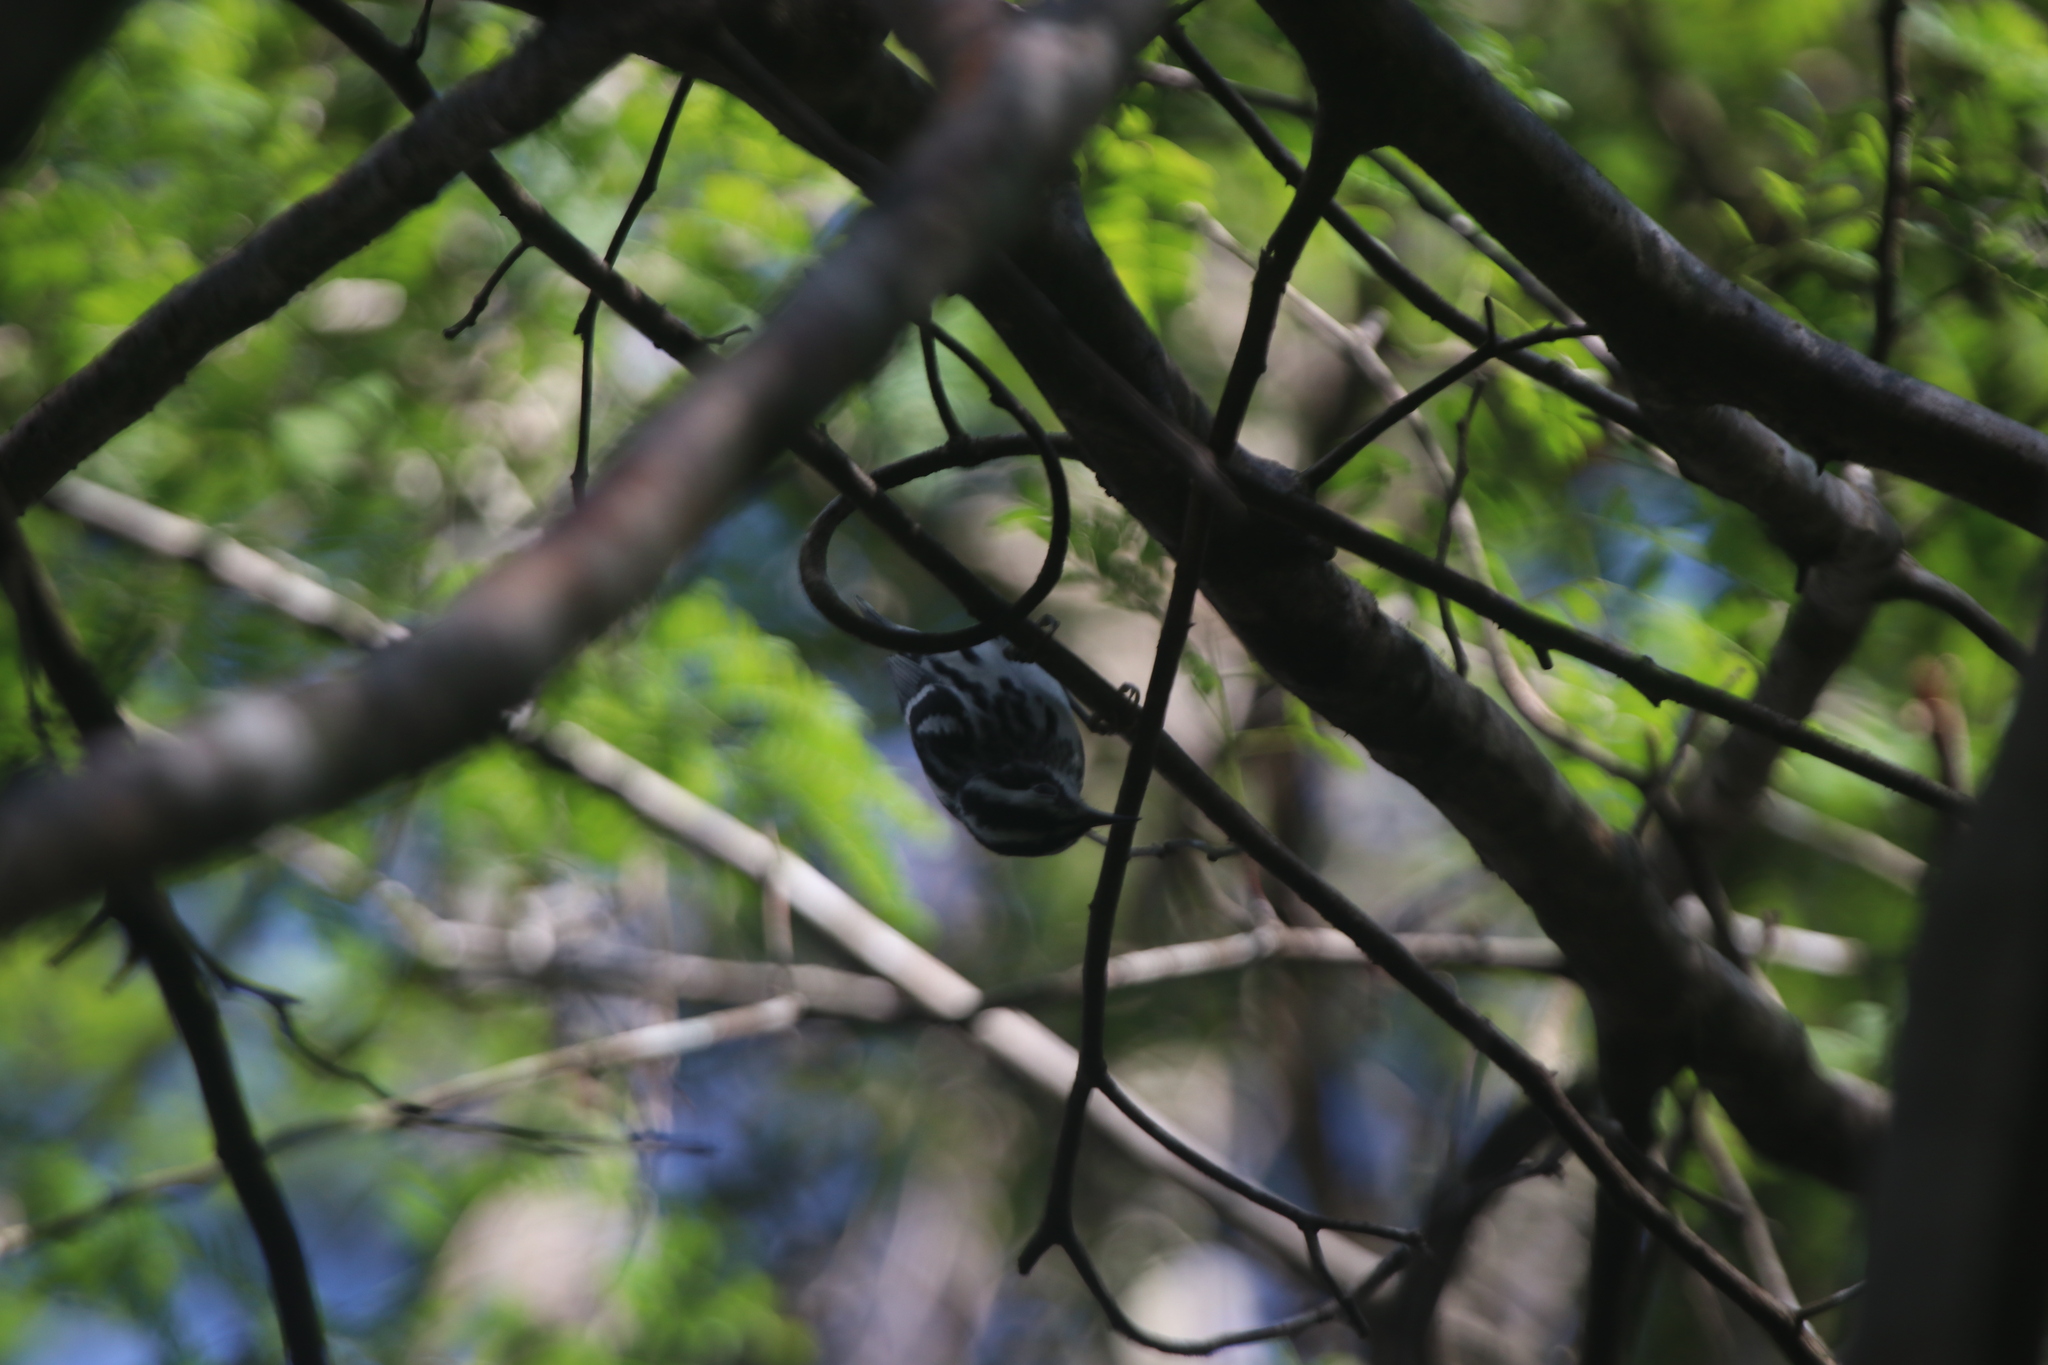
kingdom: Animalia
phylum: Chordata
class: Aves
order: Passeriformes
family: Parulidae
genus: Mniotilta
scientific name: Mniotilta varia
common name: Black-and-white warbler
